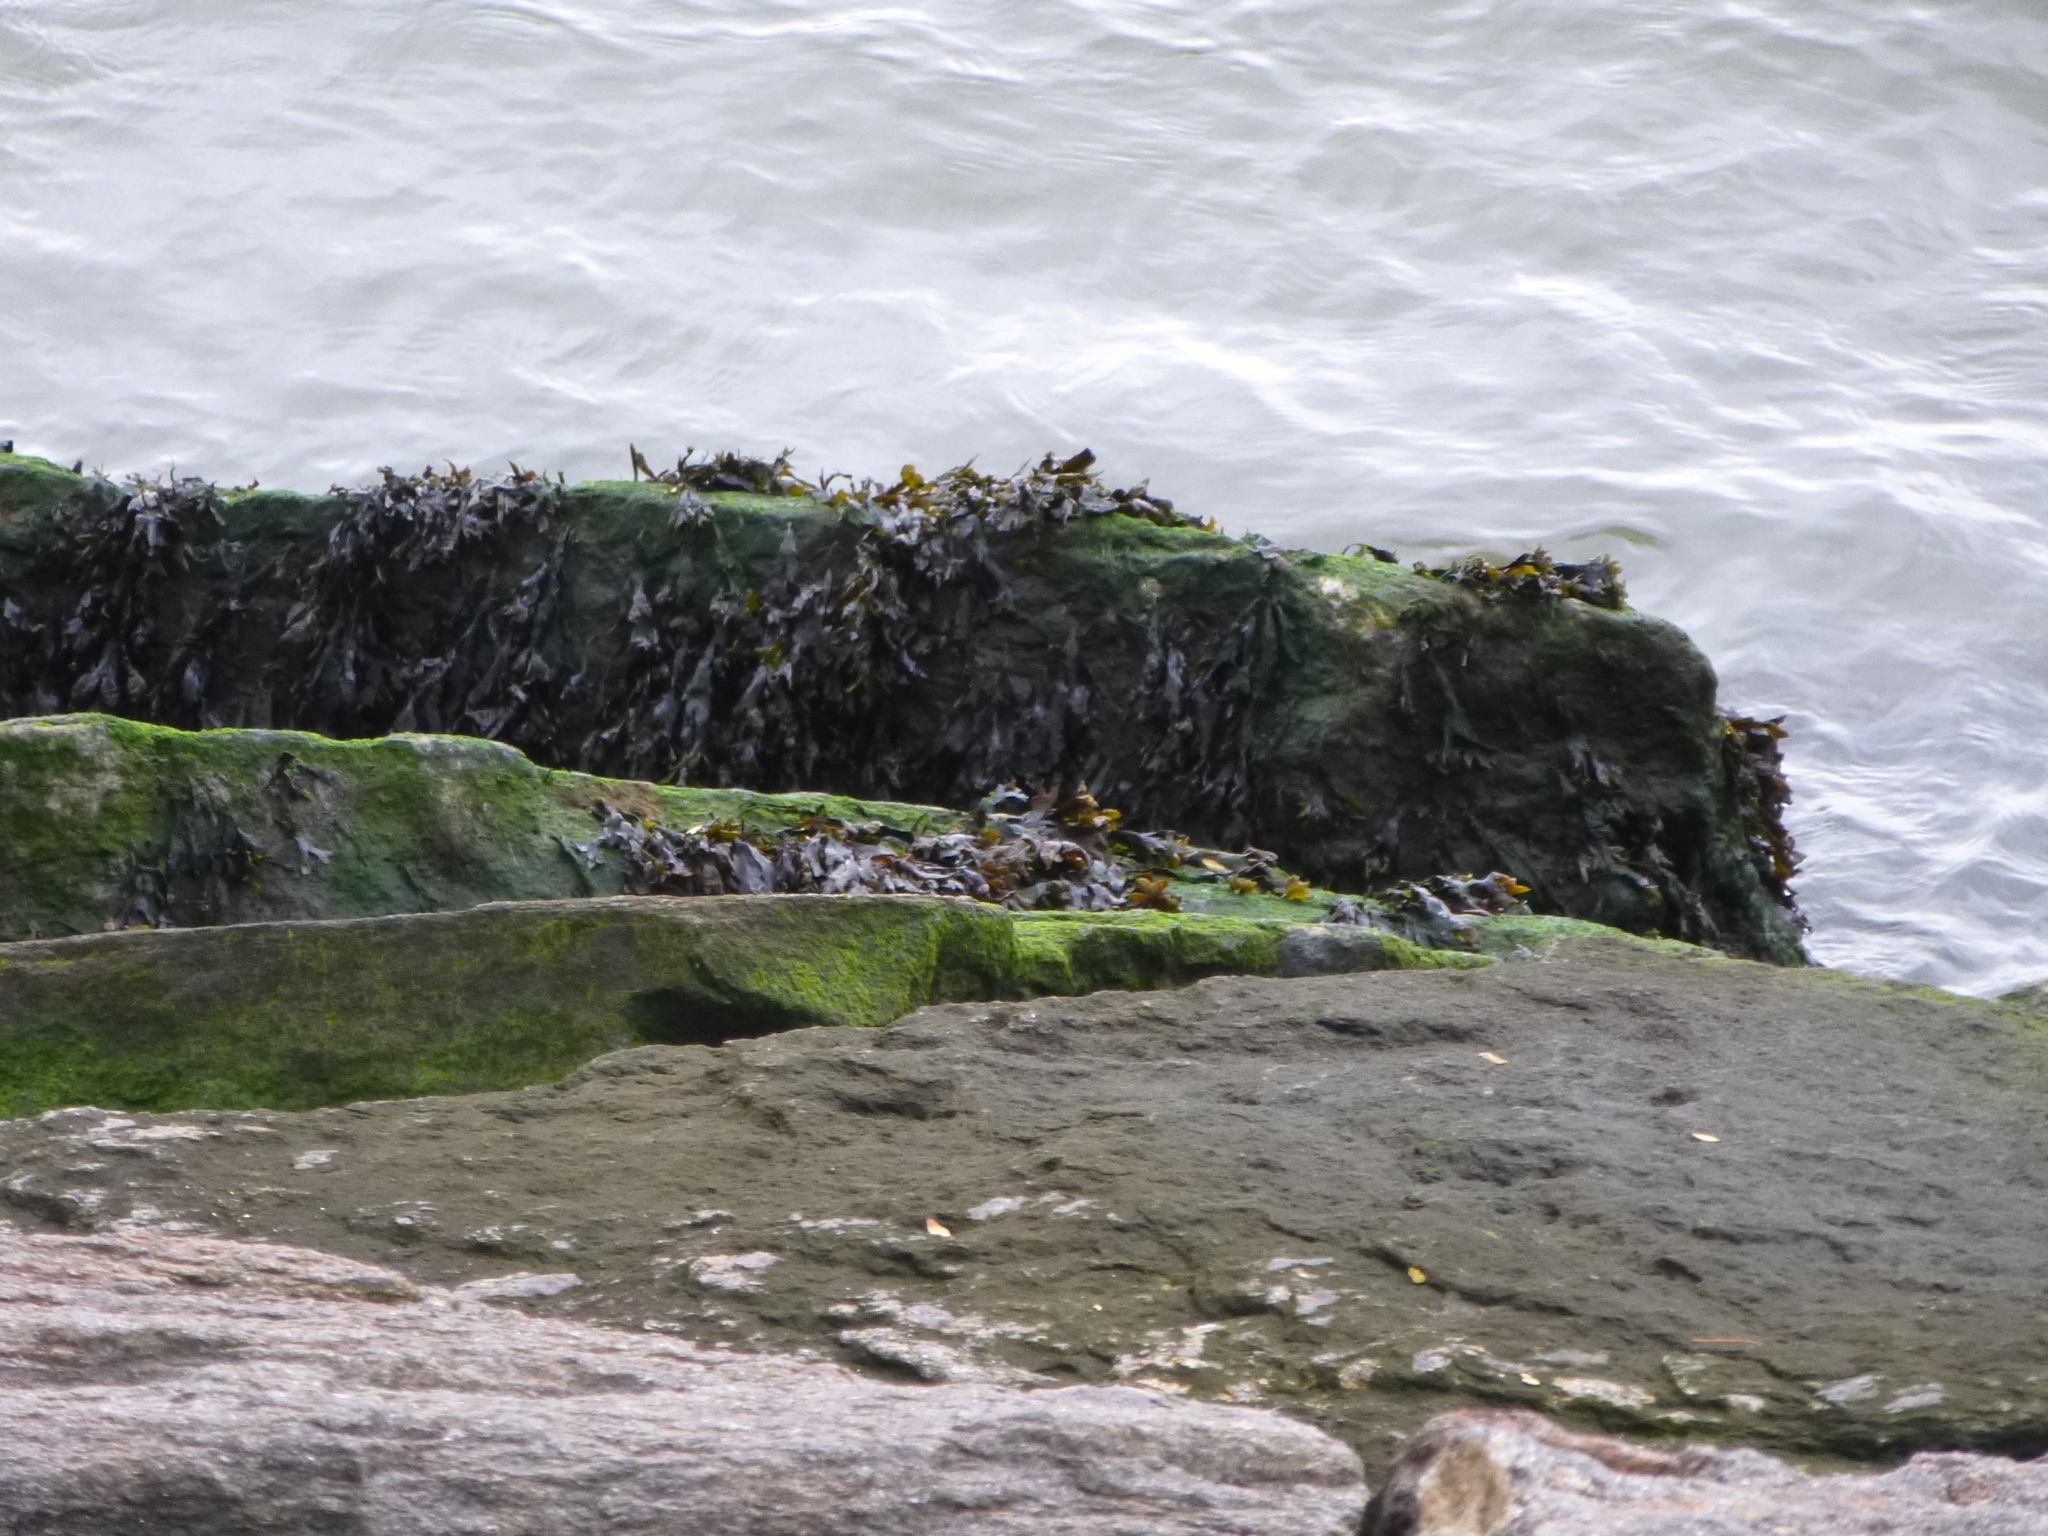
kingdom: Chromista
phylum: Ochrophyta
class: Phaeophyceae
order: Fucales
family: Fucaceae
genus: Fucus
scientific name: Fucus distichus
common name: Rockweed
